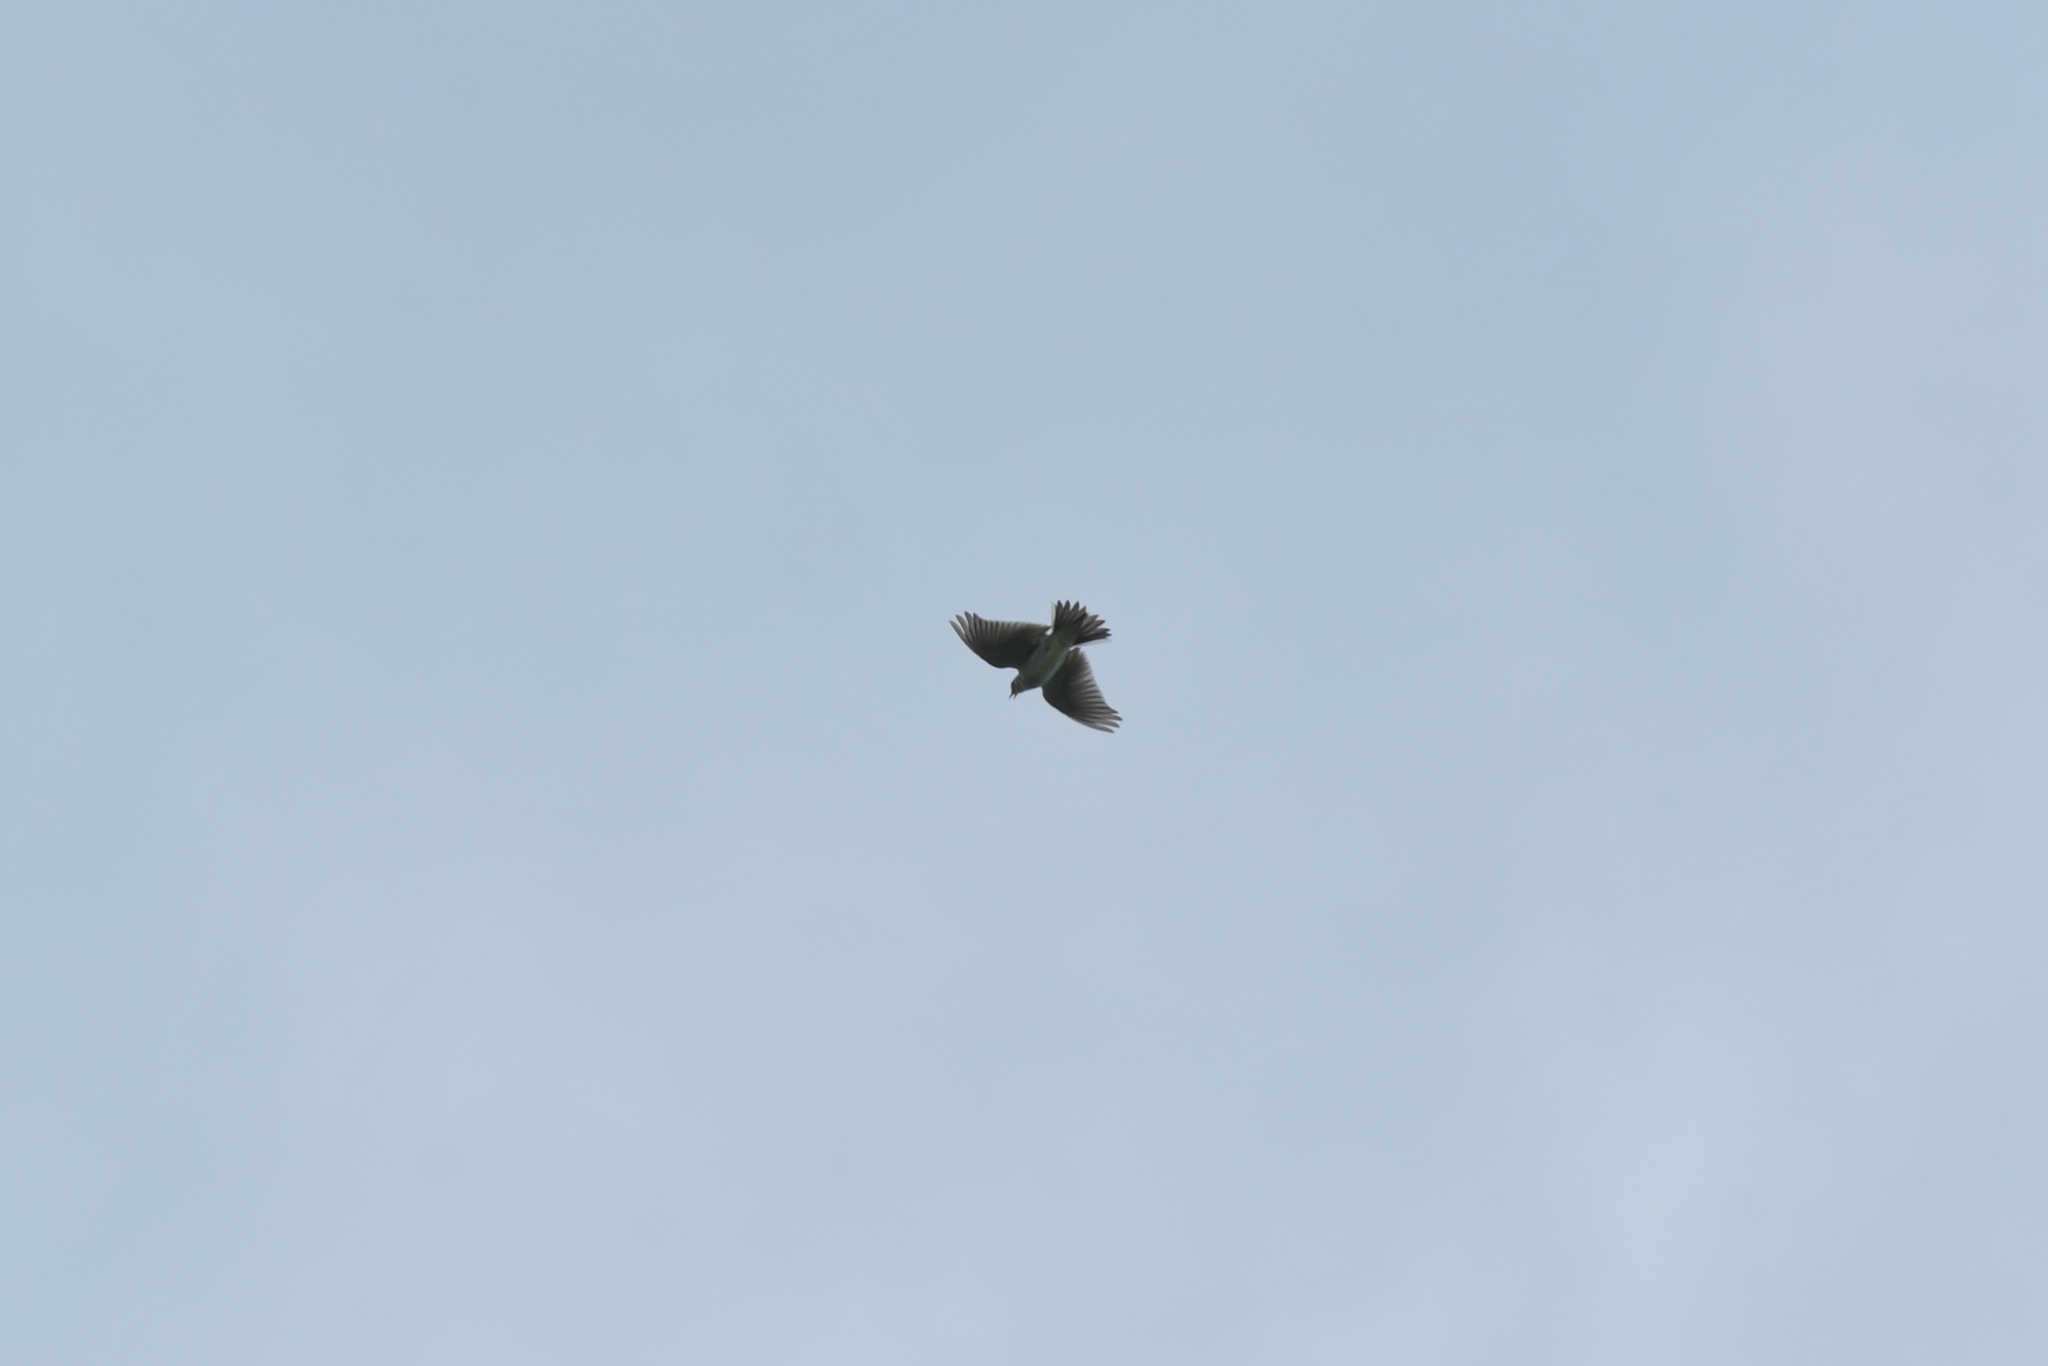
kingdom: Animalia
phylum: Chordata
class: Aves
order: Passeriformes
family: Alaudidae
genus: Alauda
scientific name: Alauda arvensis
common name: Eurasian skylark
